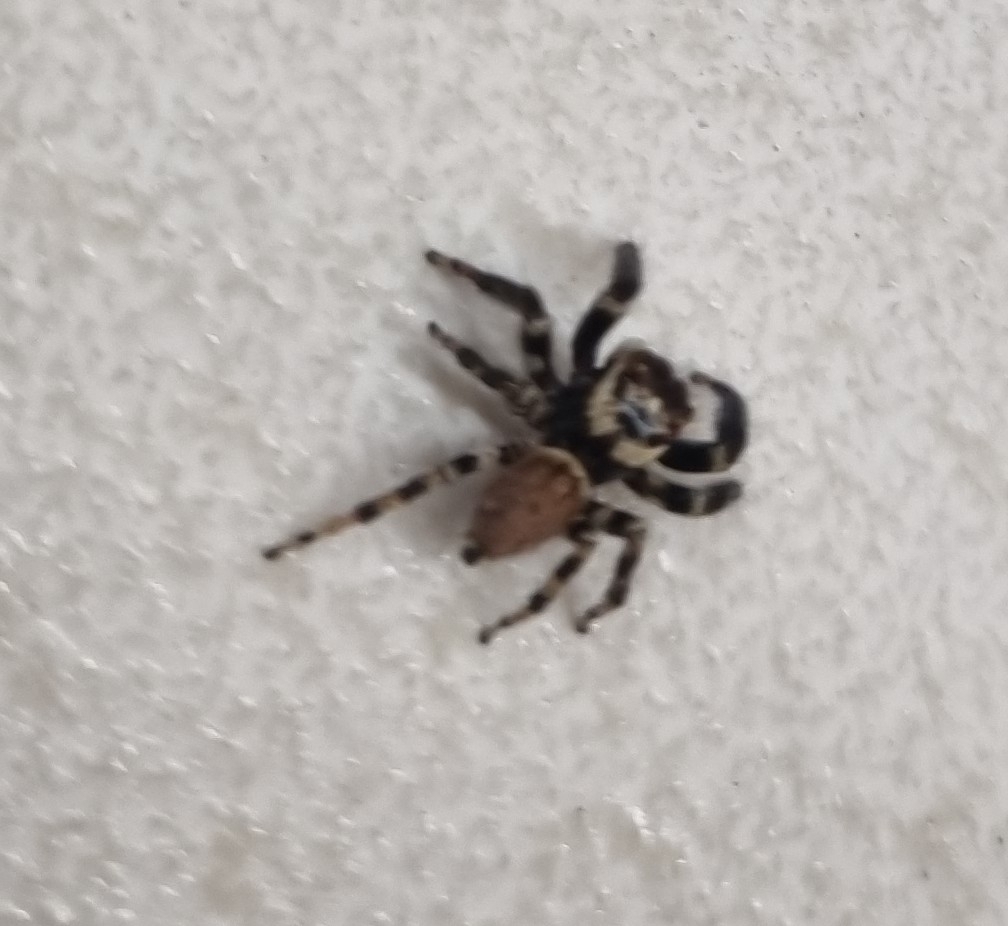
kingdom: Animalia
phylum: Arthropoda
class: Arachnida
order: Araneae
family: Salticidae
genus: Evarcha
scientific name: Evarcha jucunda
